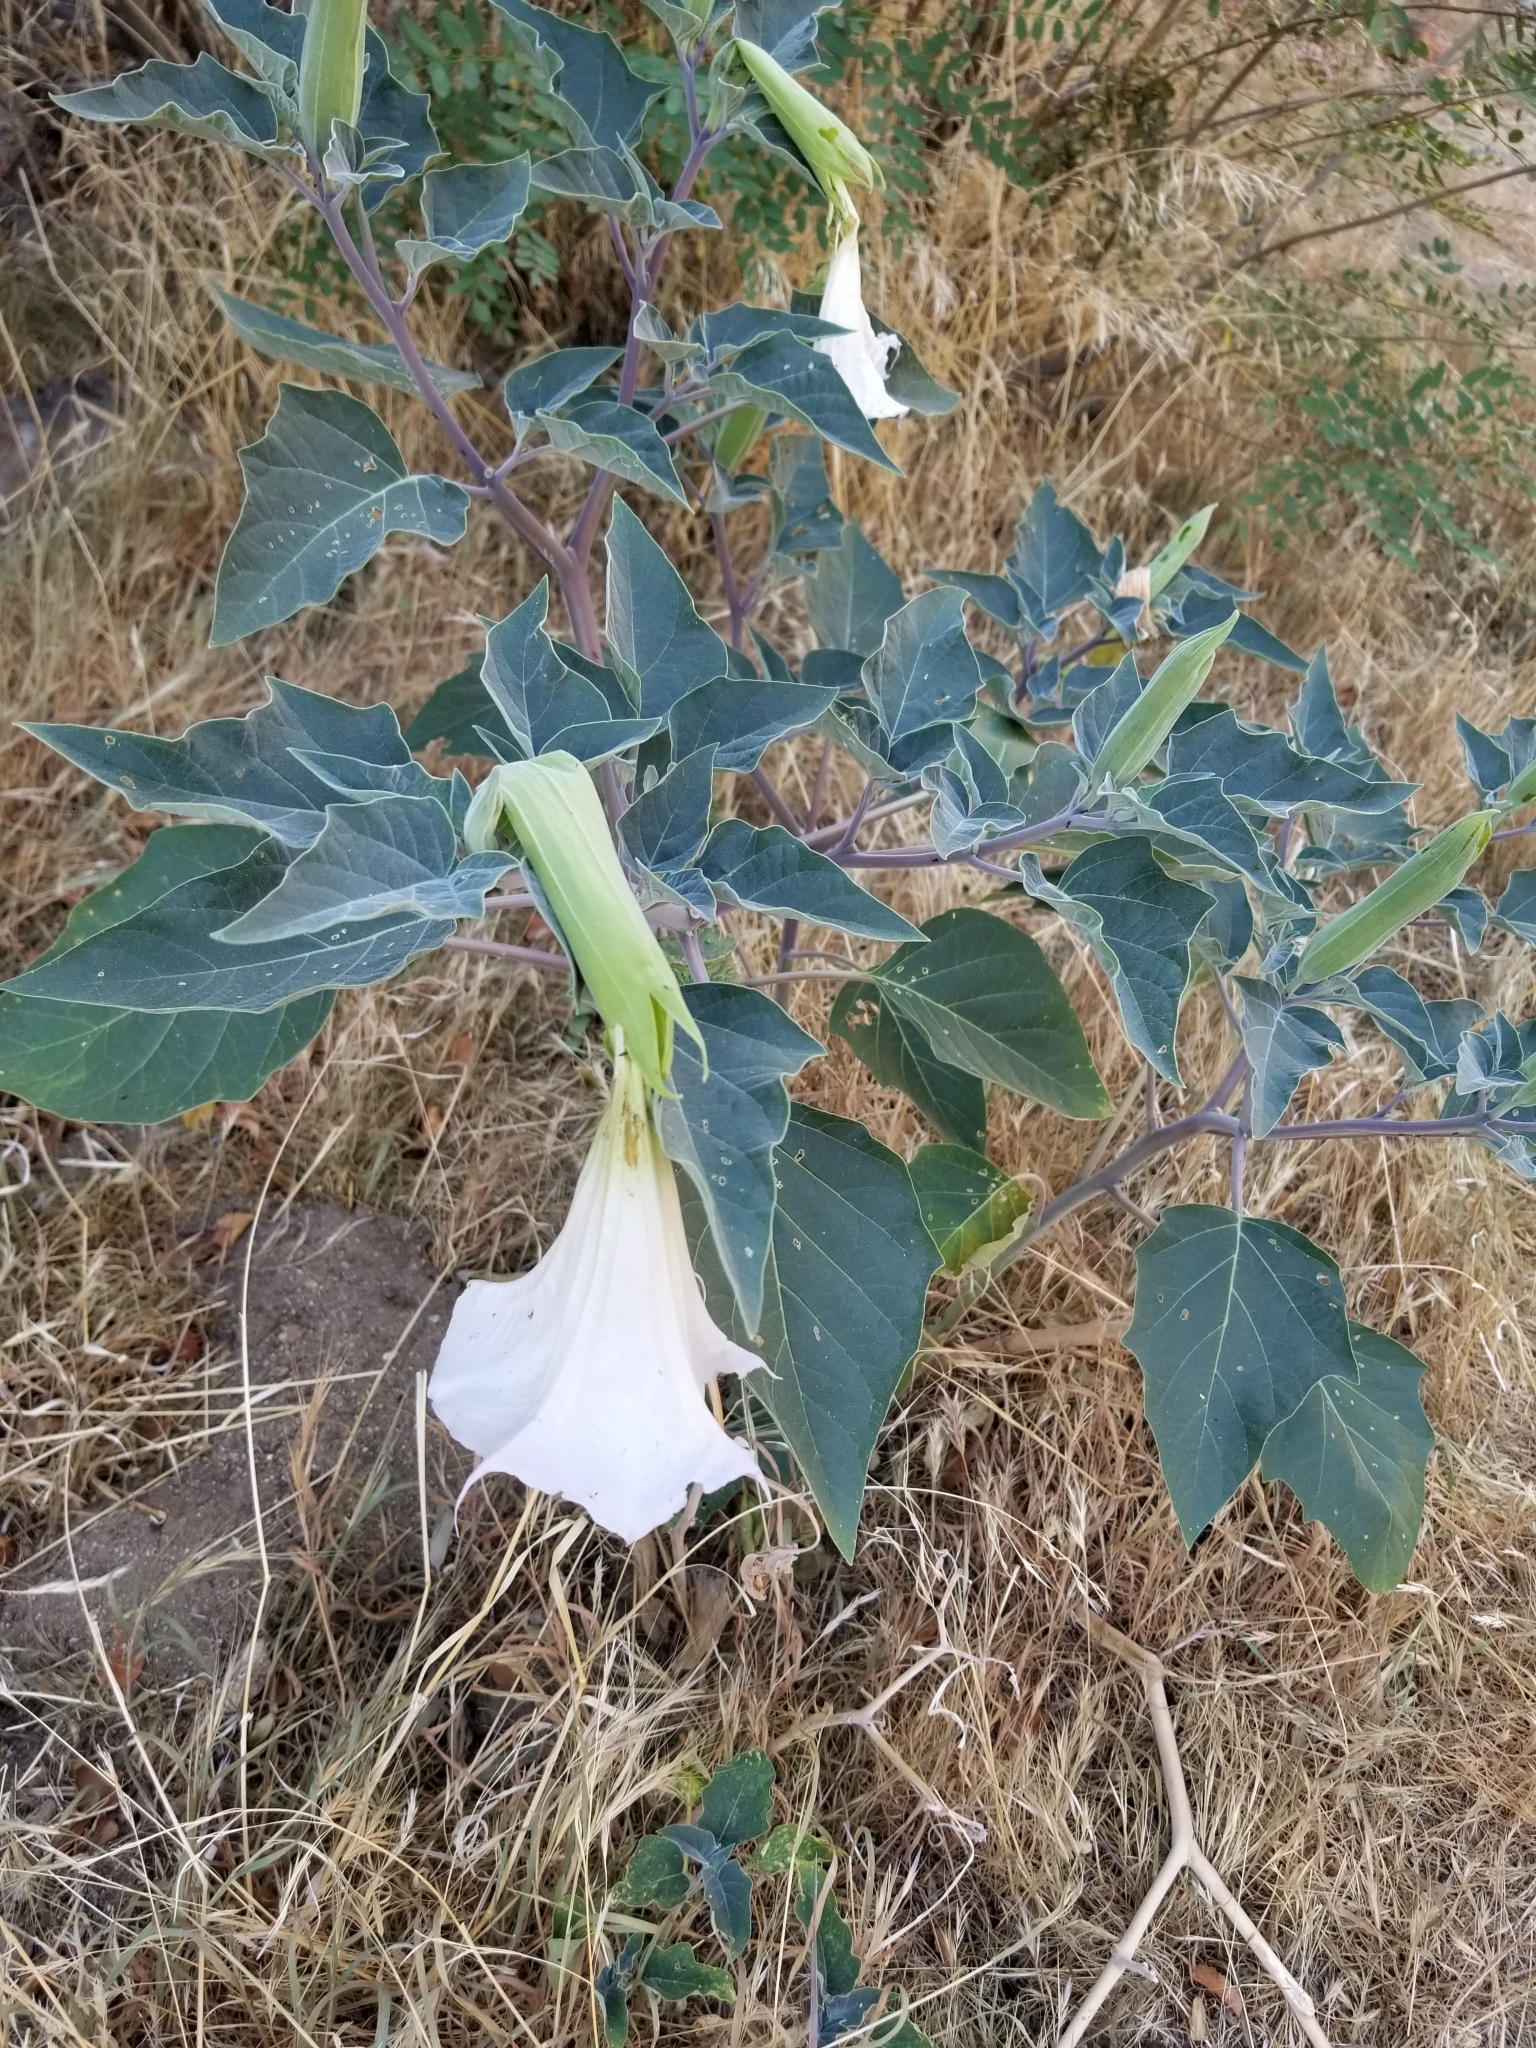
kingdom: Plantae
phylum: Tracheophyta
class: Magnoliopsida
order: Solanales
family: Solanaceae
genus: Datura
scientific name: Datura wrightii
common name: Sacred thorn-apple
